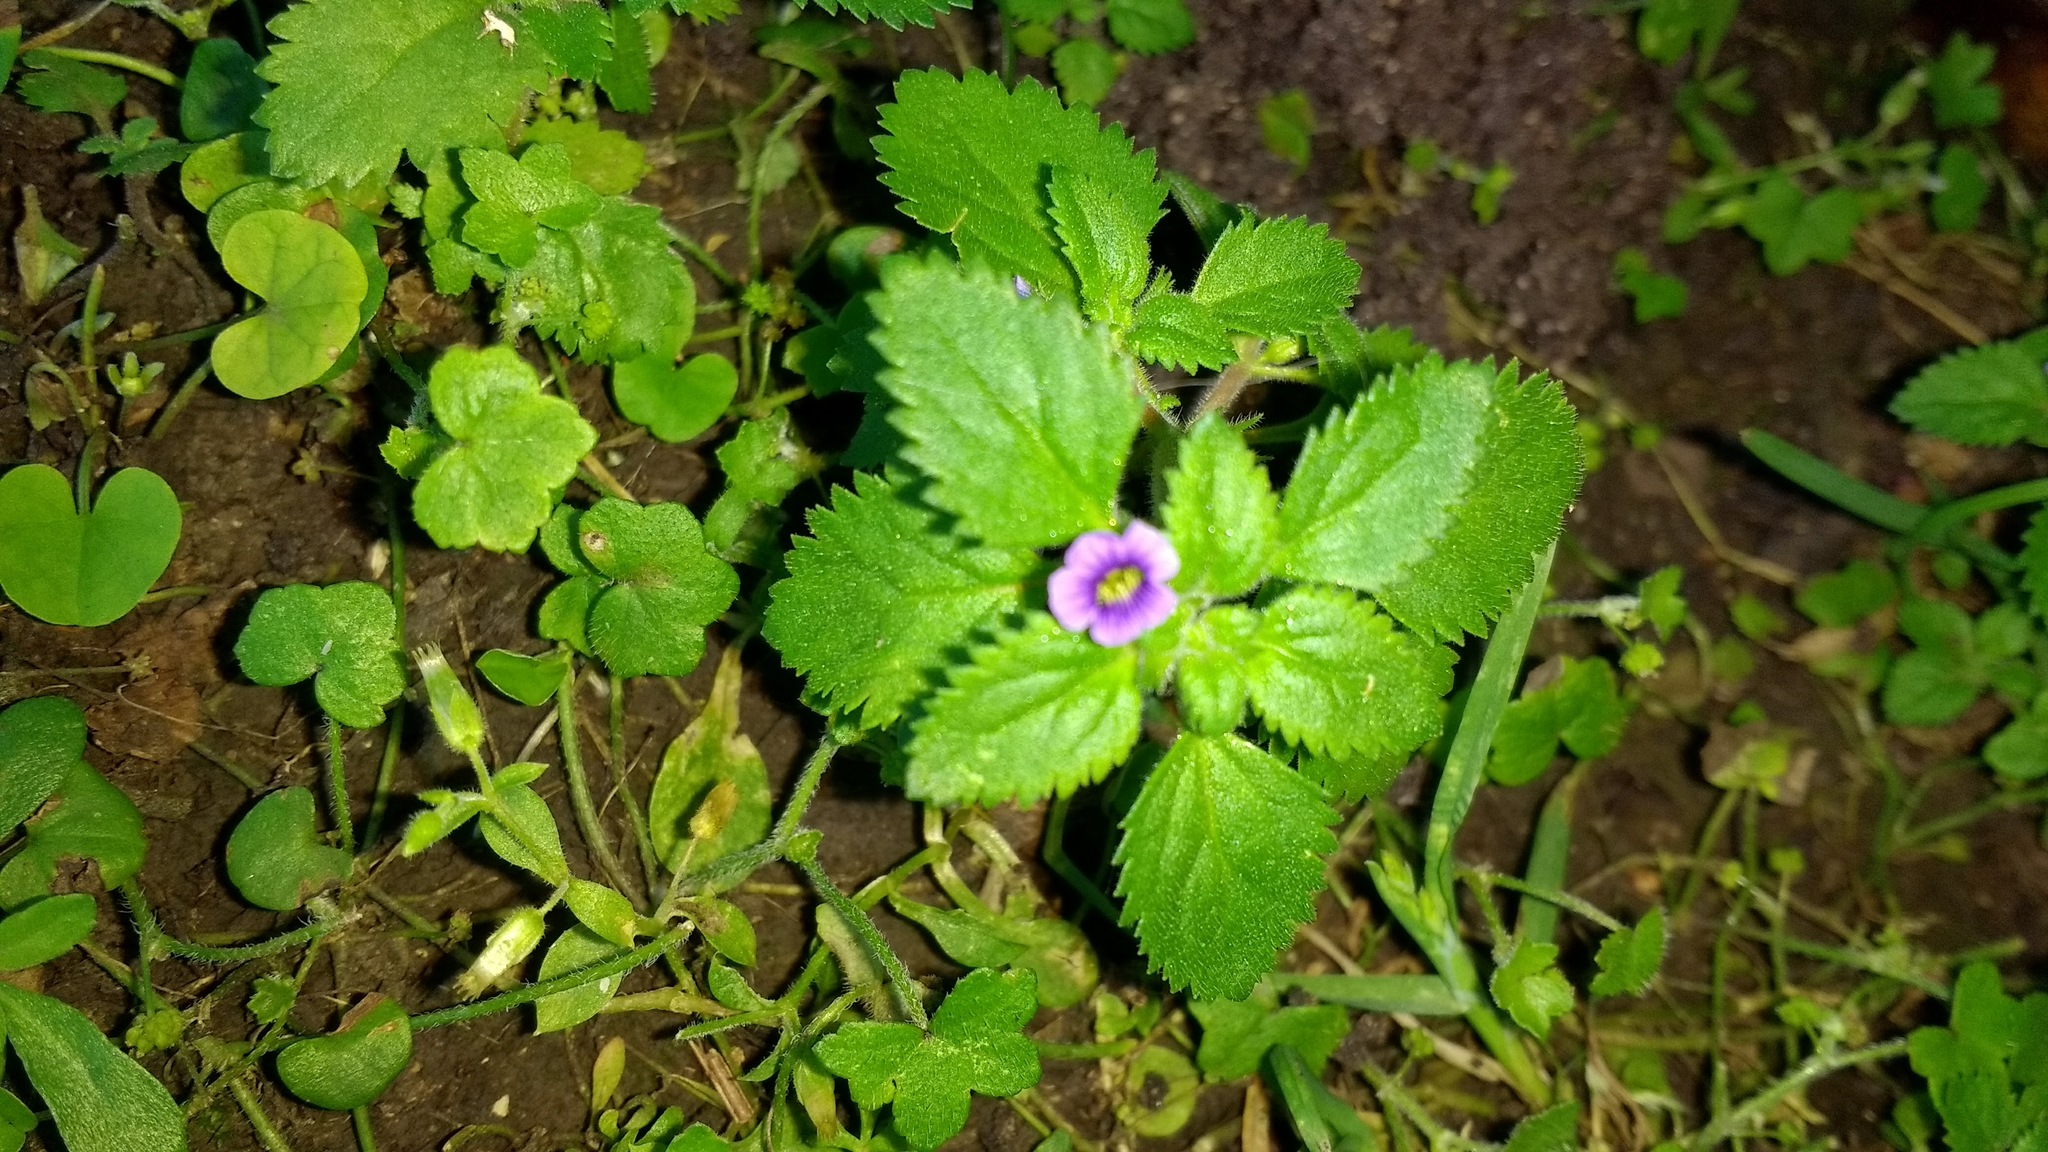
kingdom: Plantae
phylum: Tracheophyta
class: Magnoliopsida
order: Lamiales
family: Plantaginaceae
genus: Stemodia
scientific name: Stemodia verticillata
